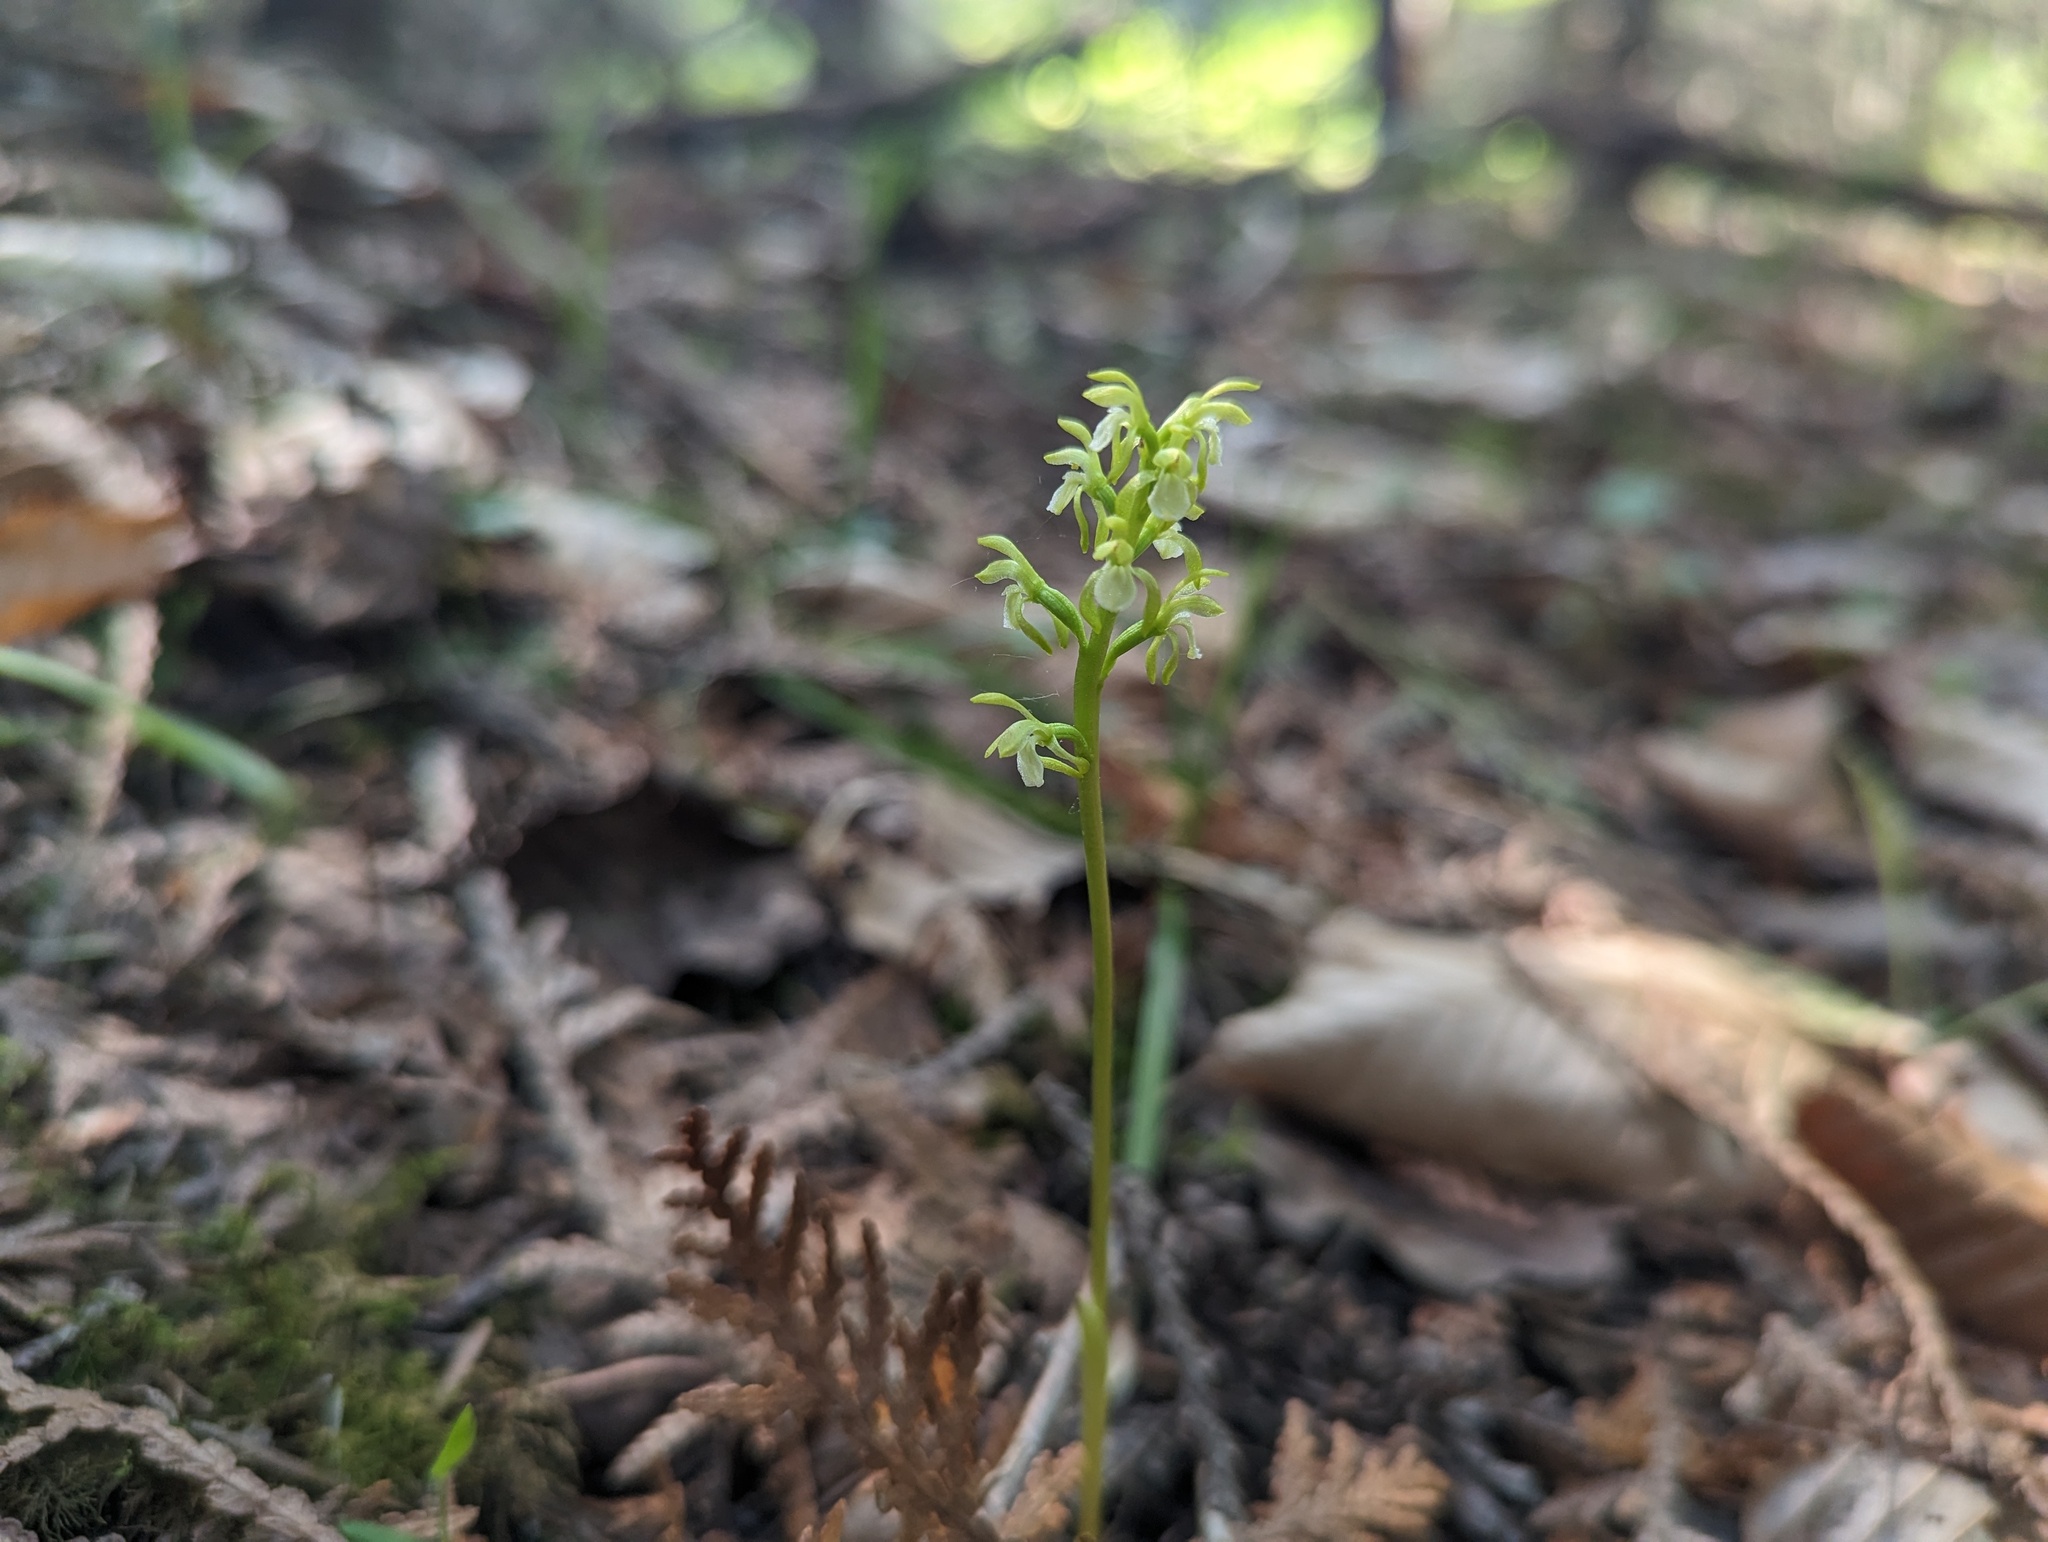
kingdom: Plantae
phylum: Tracheophyta
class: Liliopsida
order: Asparagales
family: Orchidaceae
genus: Corallorhiza
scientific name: Corallorhiza trifida
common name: Yellow coralroot
